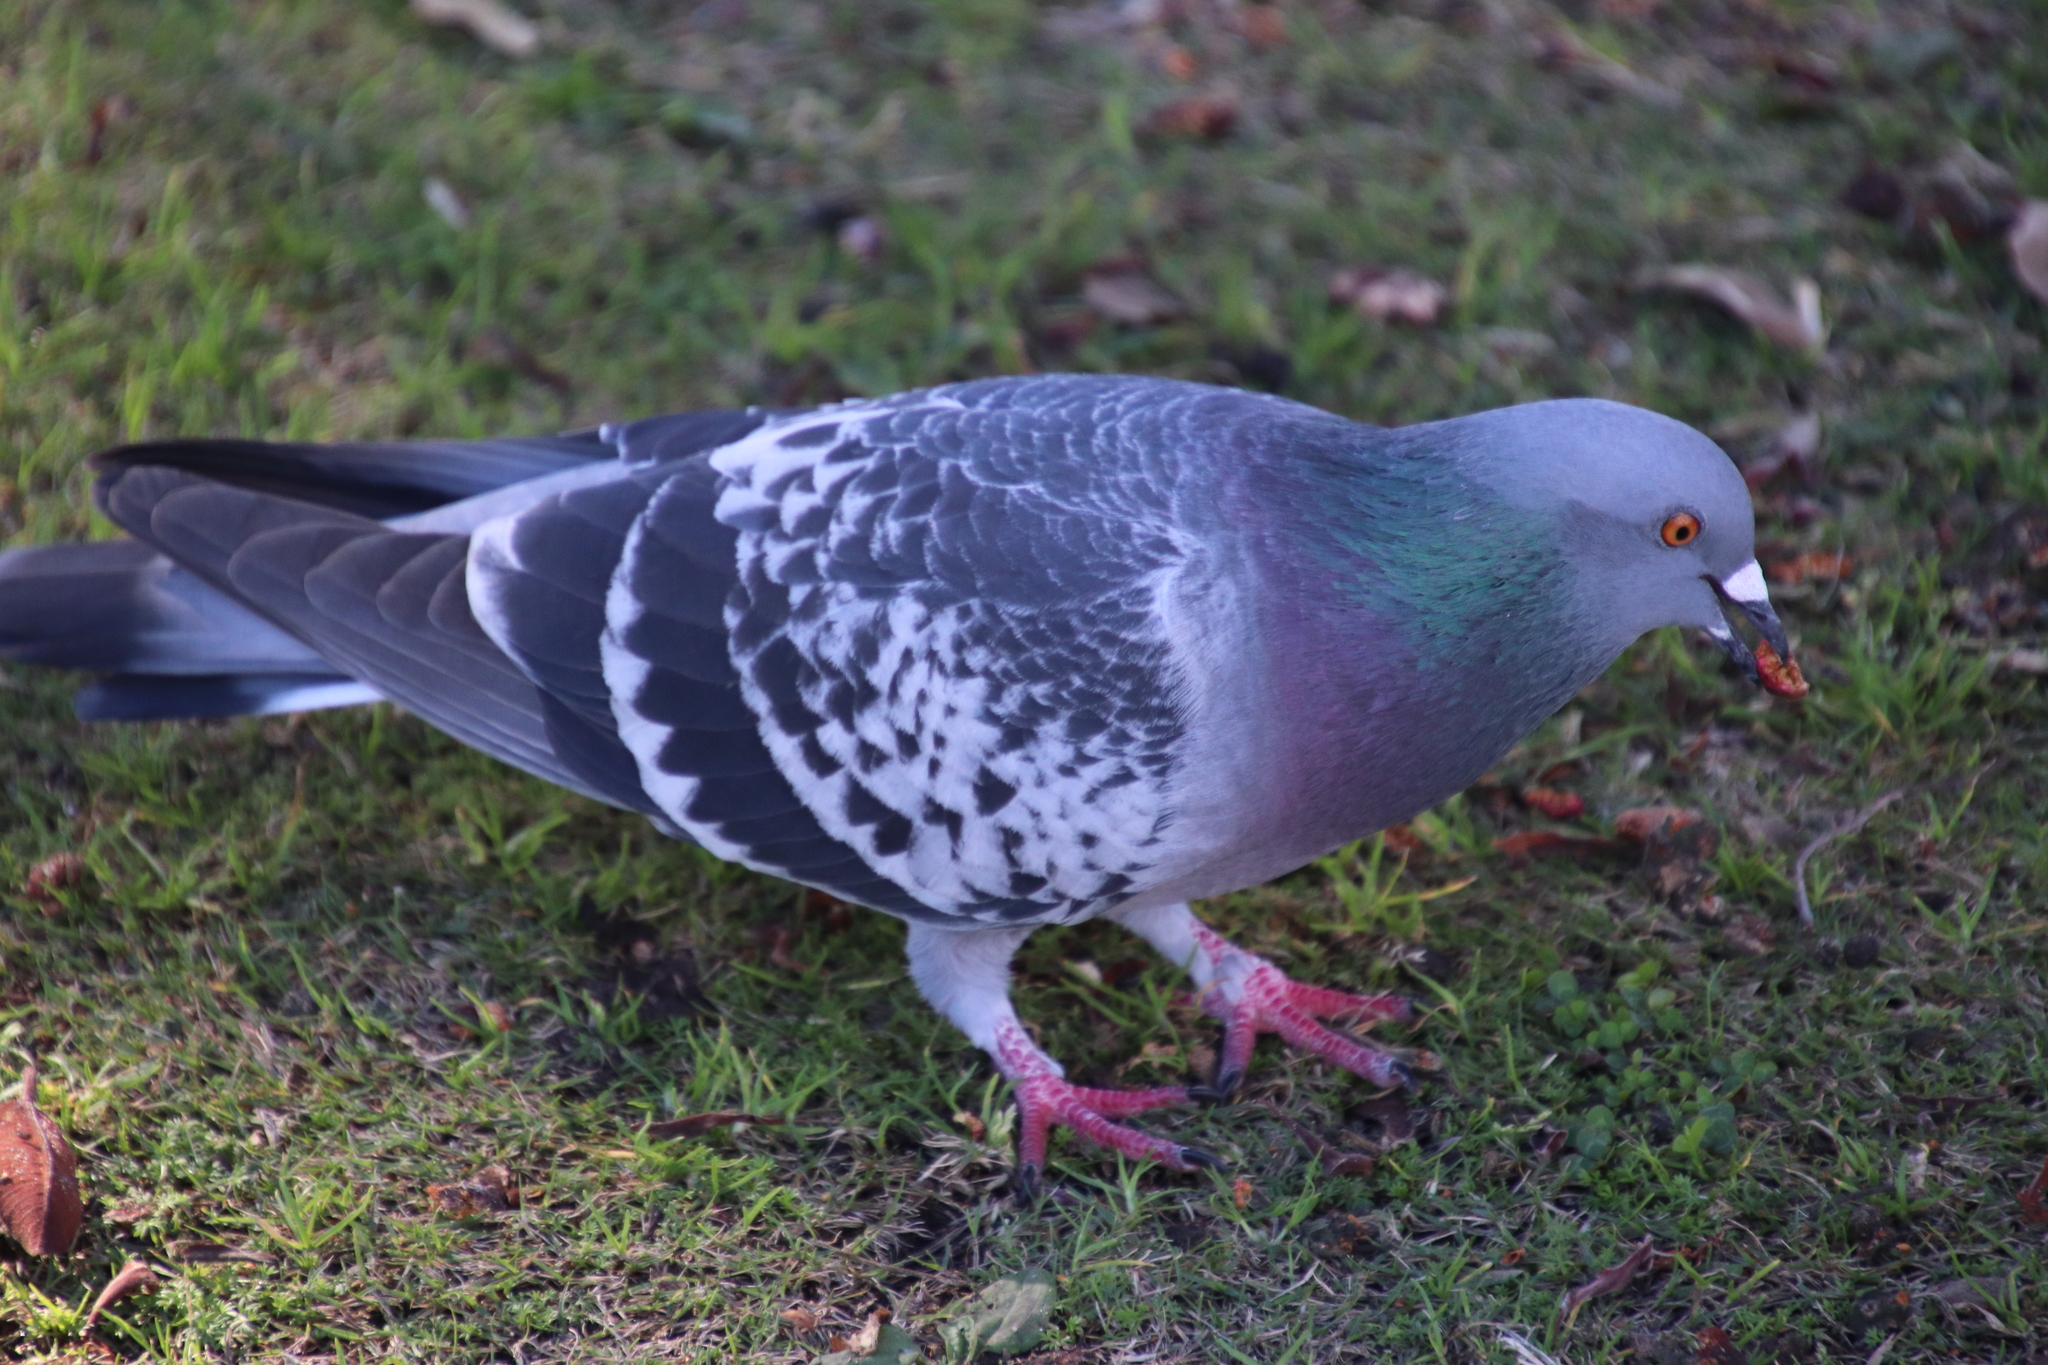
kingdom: Animalia
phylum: Chordata
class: Aves
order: Columbiformes
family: Columbidae
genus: Columba
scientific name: Columba livia
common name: Rock pigeon
